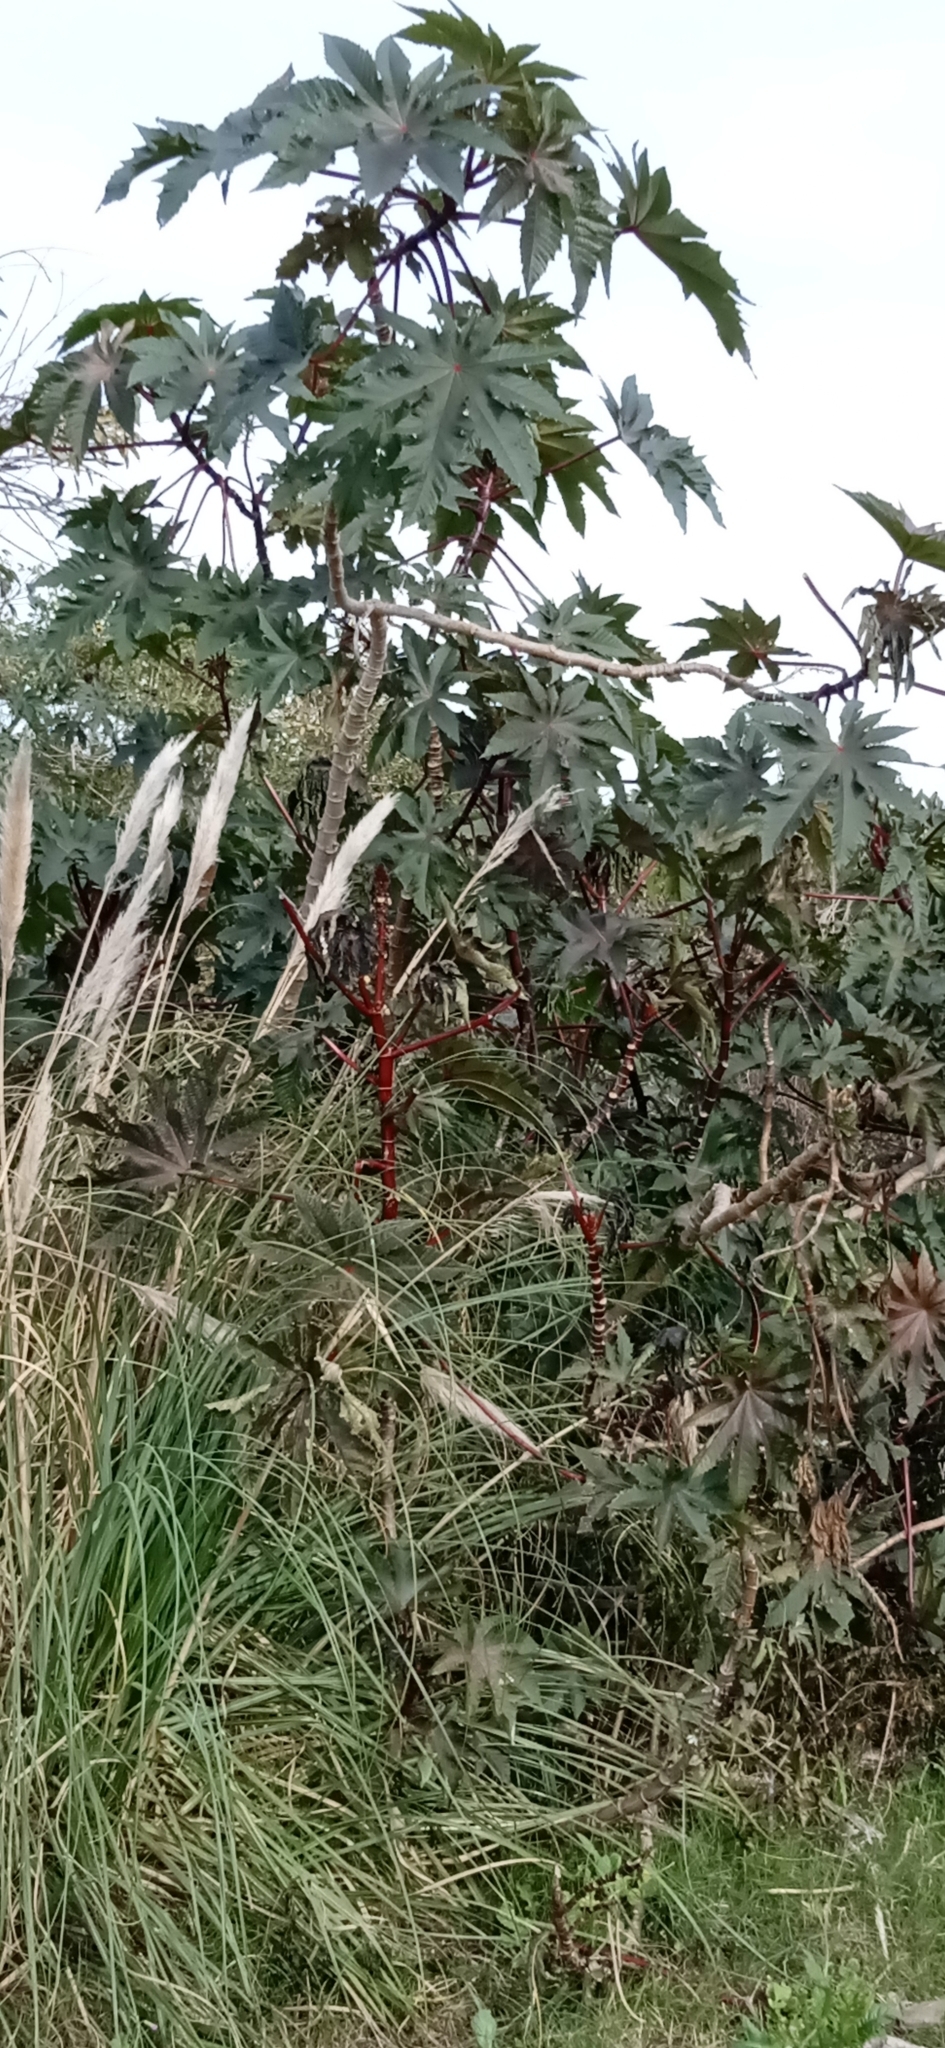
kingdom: Plantae
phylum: Tracheophyta
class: Magnoliopsida
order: Malpighiales
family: Euphorbiaceae
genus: Ricinus
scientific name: Ricinus communis
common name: Castor-oil-plant
